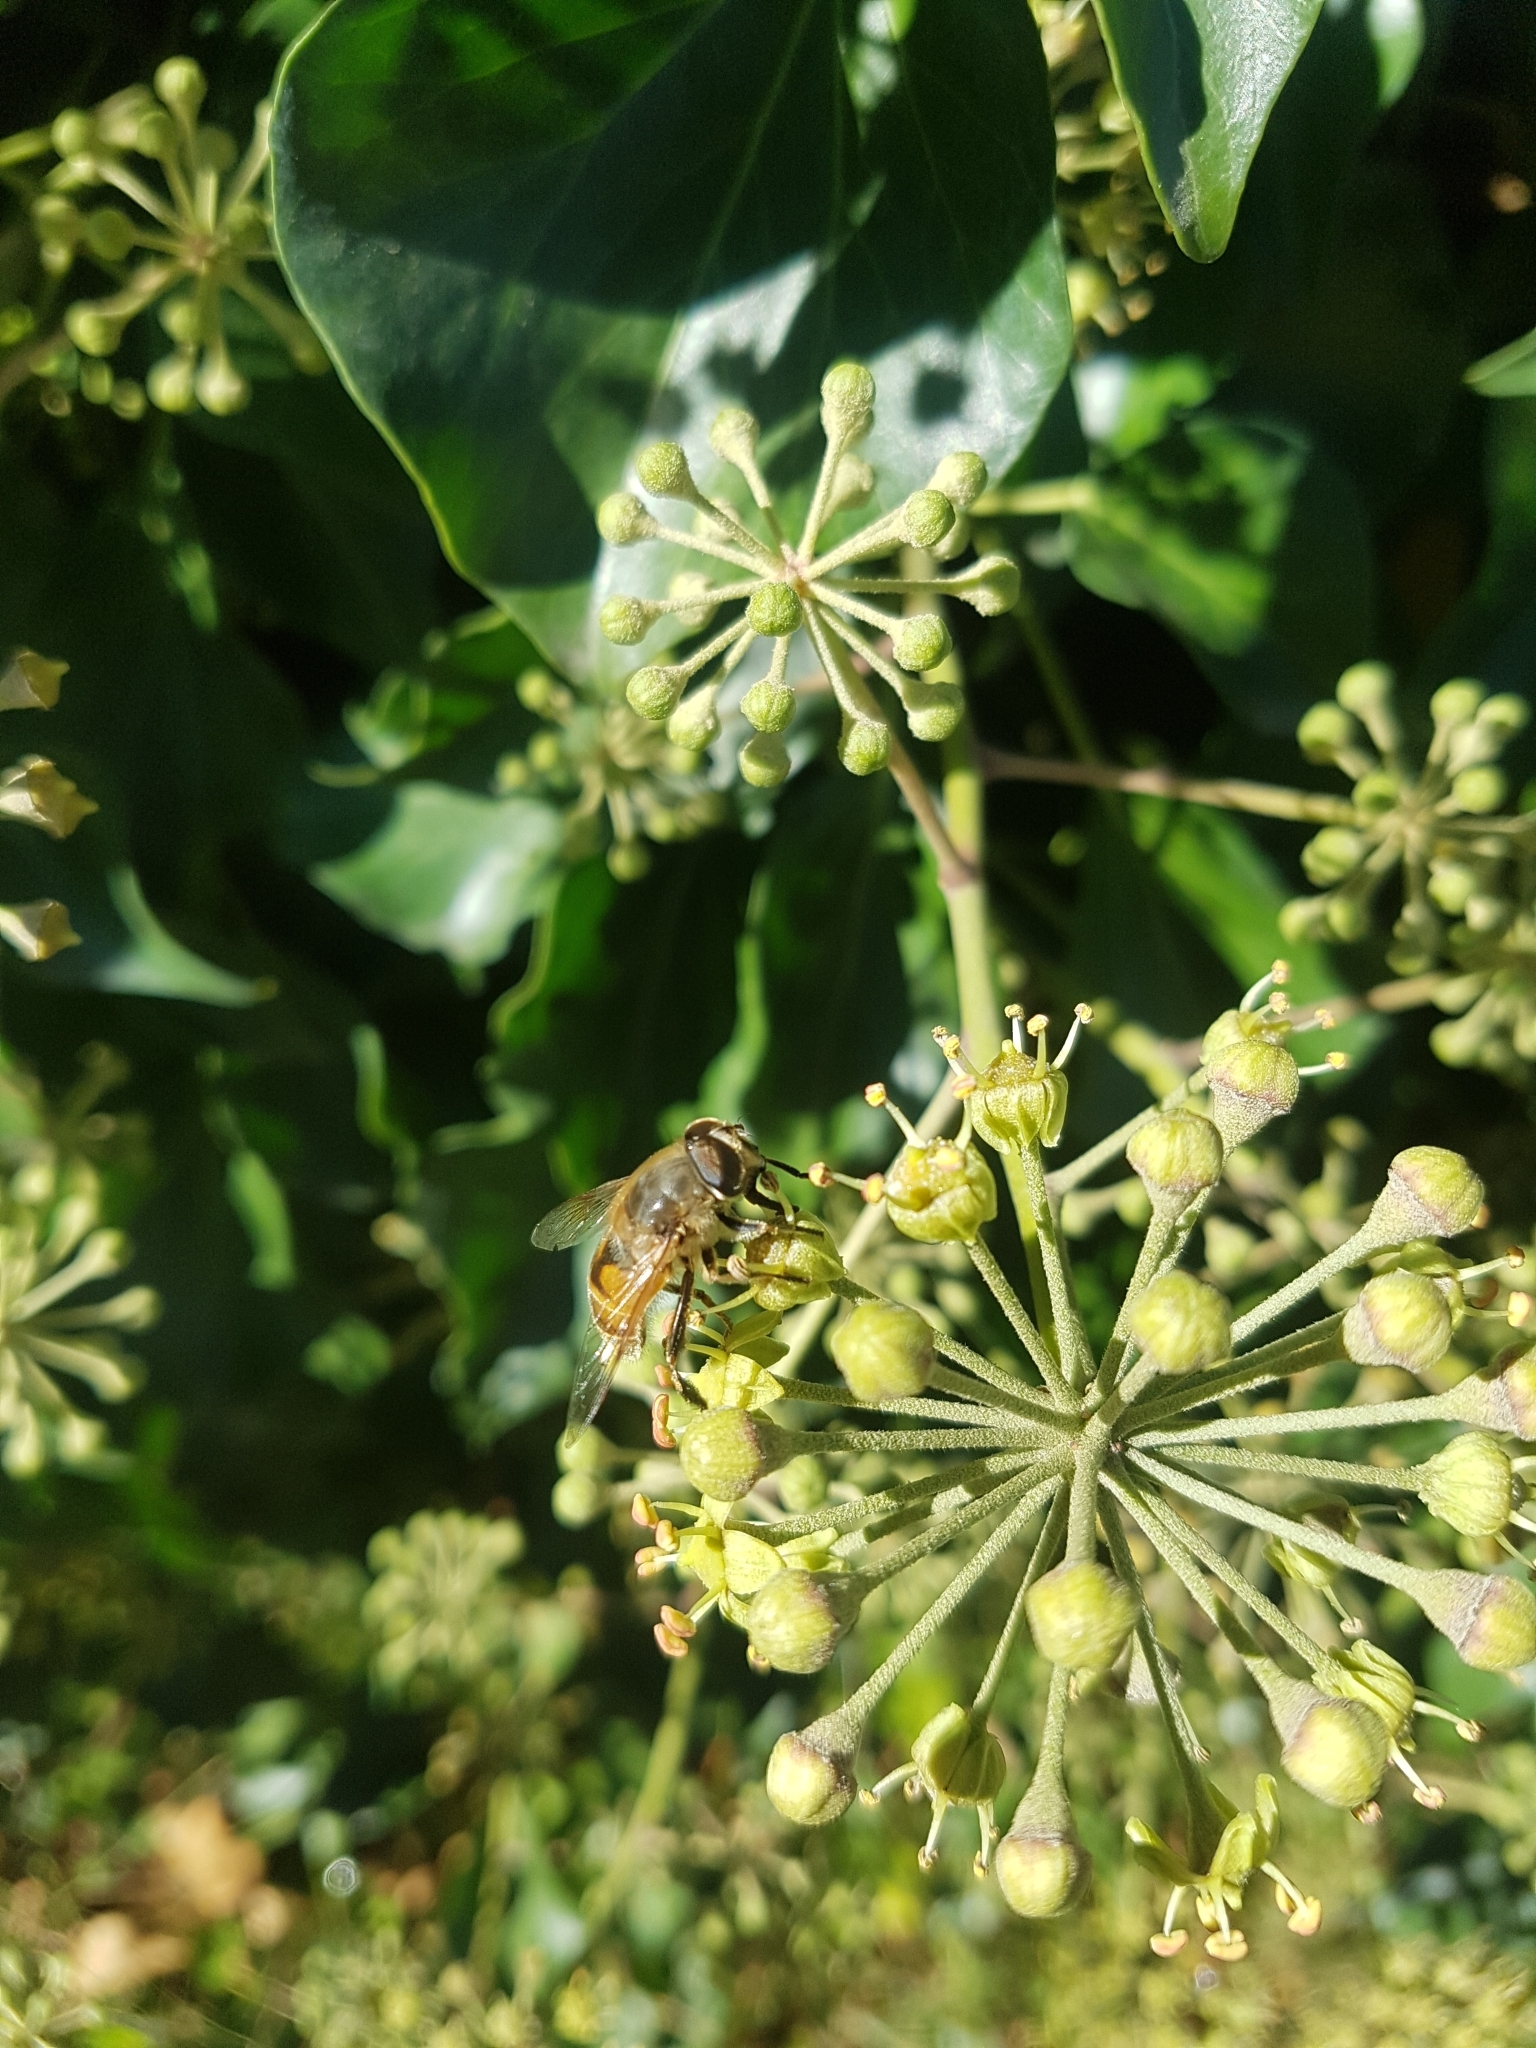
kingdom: Animalia
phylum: Arthropoda
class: Insecta
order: Diptera
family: Syrphidae
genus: Eristalis
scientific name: Eristalis tenax
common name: Drone fly
